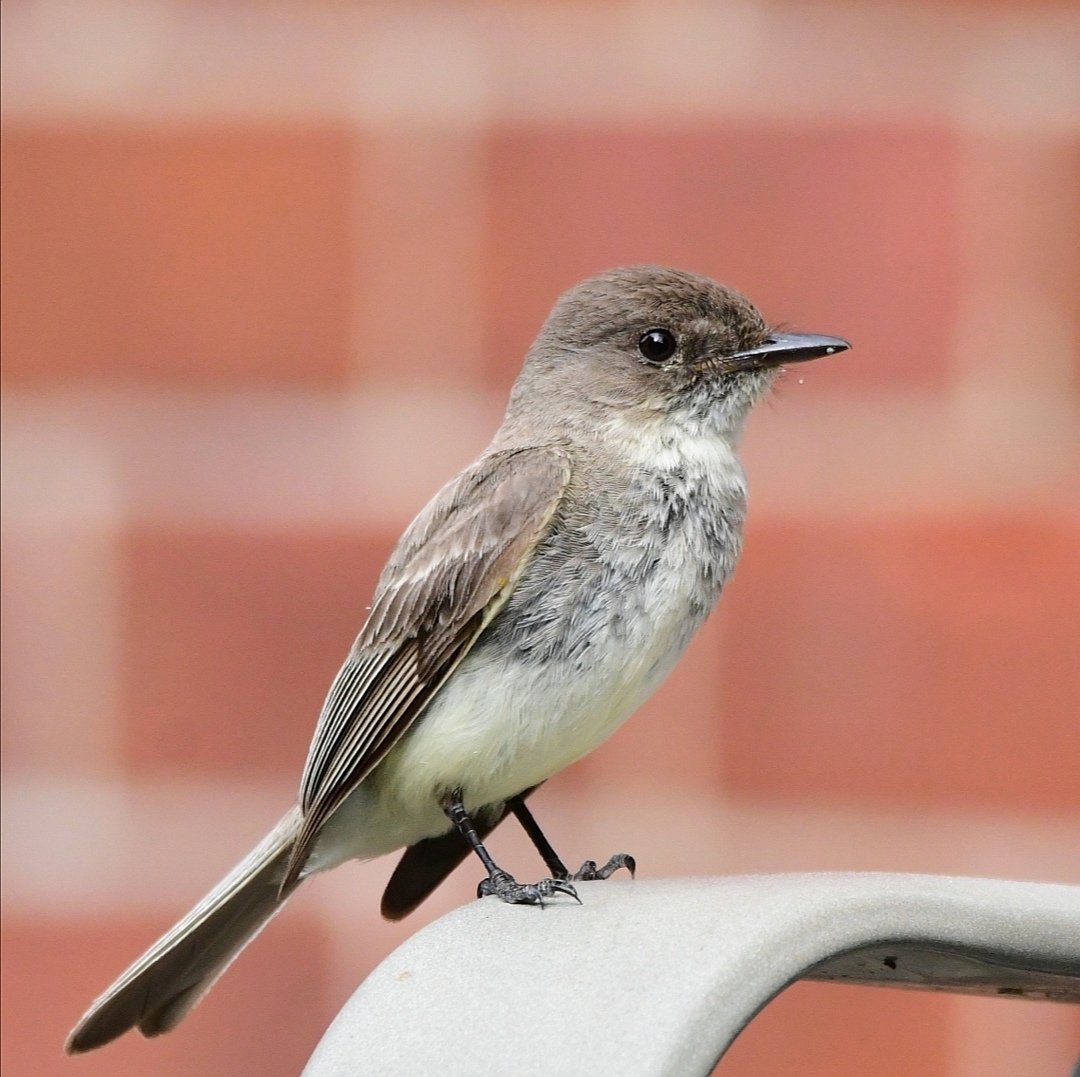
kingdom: Animalia
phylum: Chordata
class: Aves
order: Passeriformes
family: Tyrannidae
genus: Sayornis
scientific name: Sayornis phoebe
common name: Eastern phoebe
